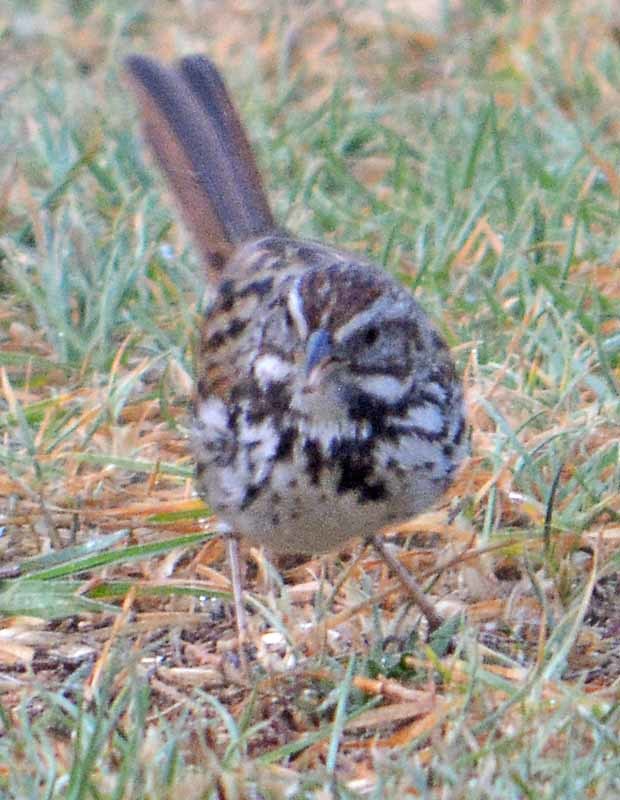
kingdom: Animalia
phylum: Chordata
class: Aves
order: Passeriformes
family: Passerellidae
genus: Melospiza
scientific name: Melospiza melodia
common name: Song sparrow
